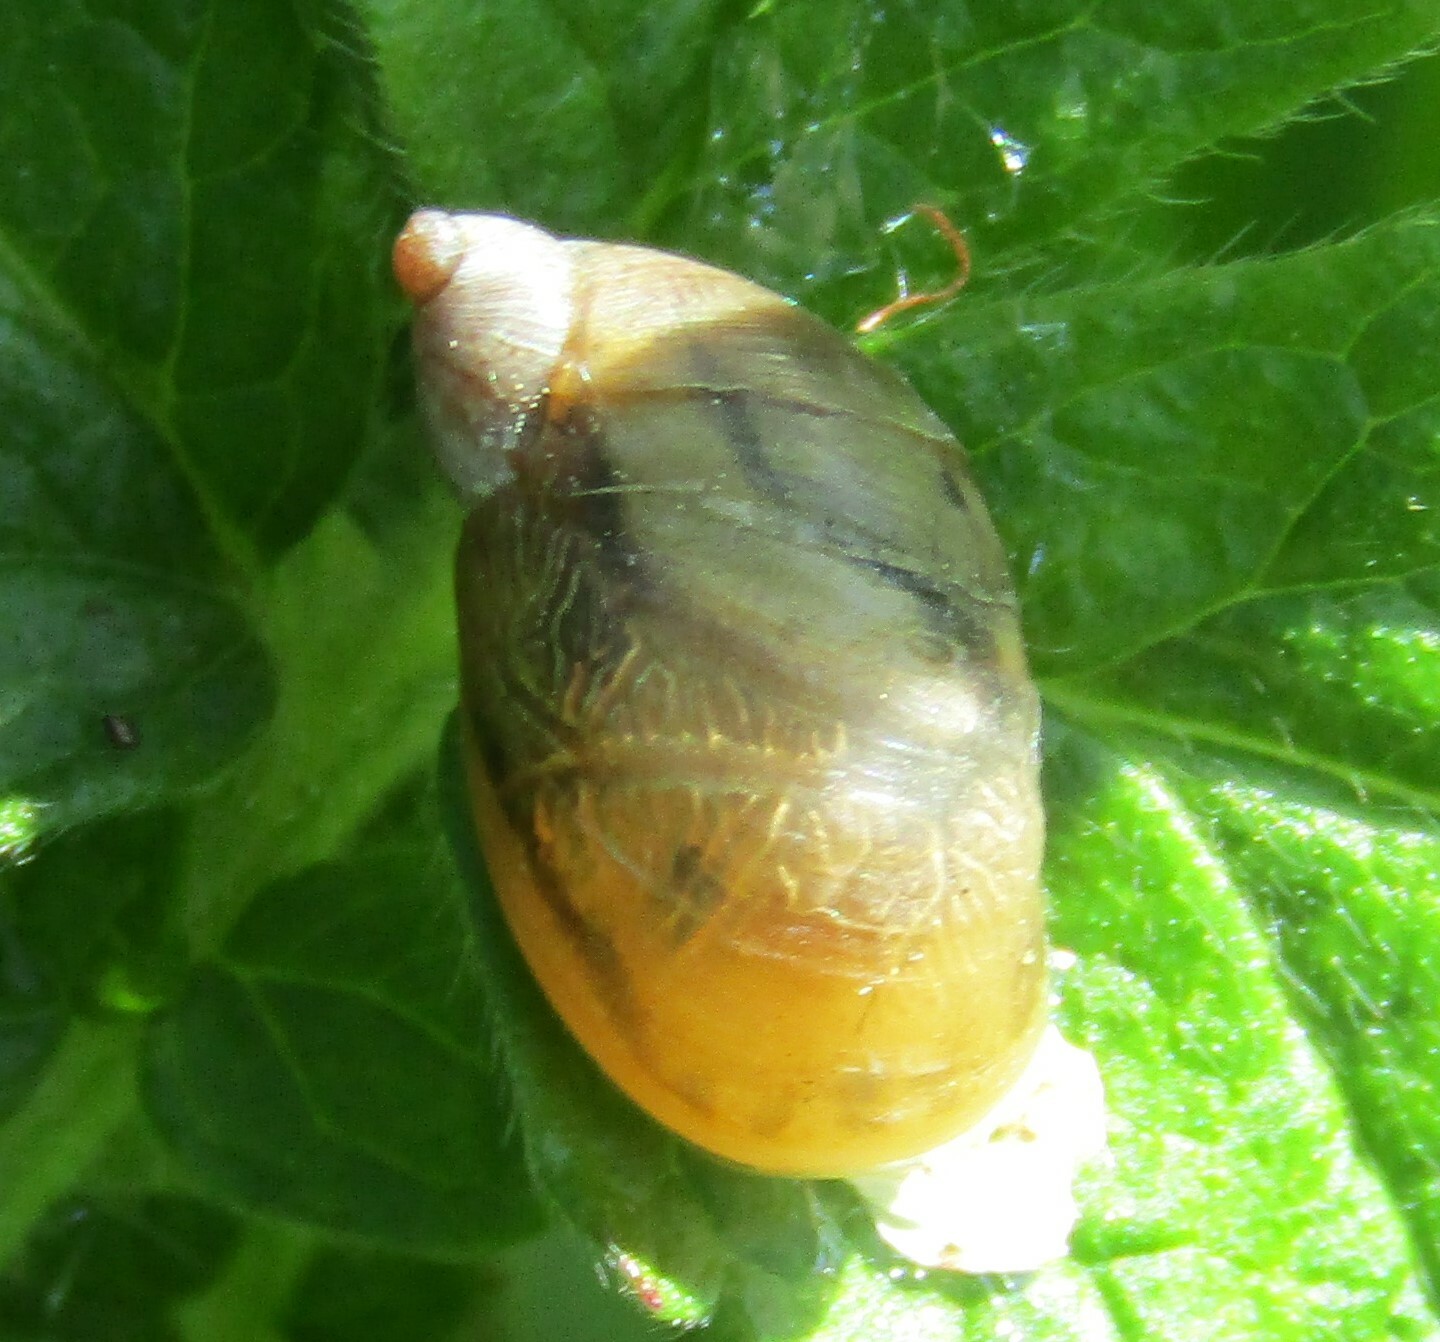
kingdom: Animalia
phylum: Mollusca
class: Gastropoda
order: Stylommatophora
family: Succineidae
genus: Succinea
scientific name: Succinea putris
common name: European ambersnail
